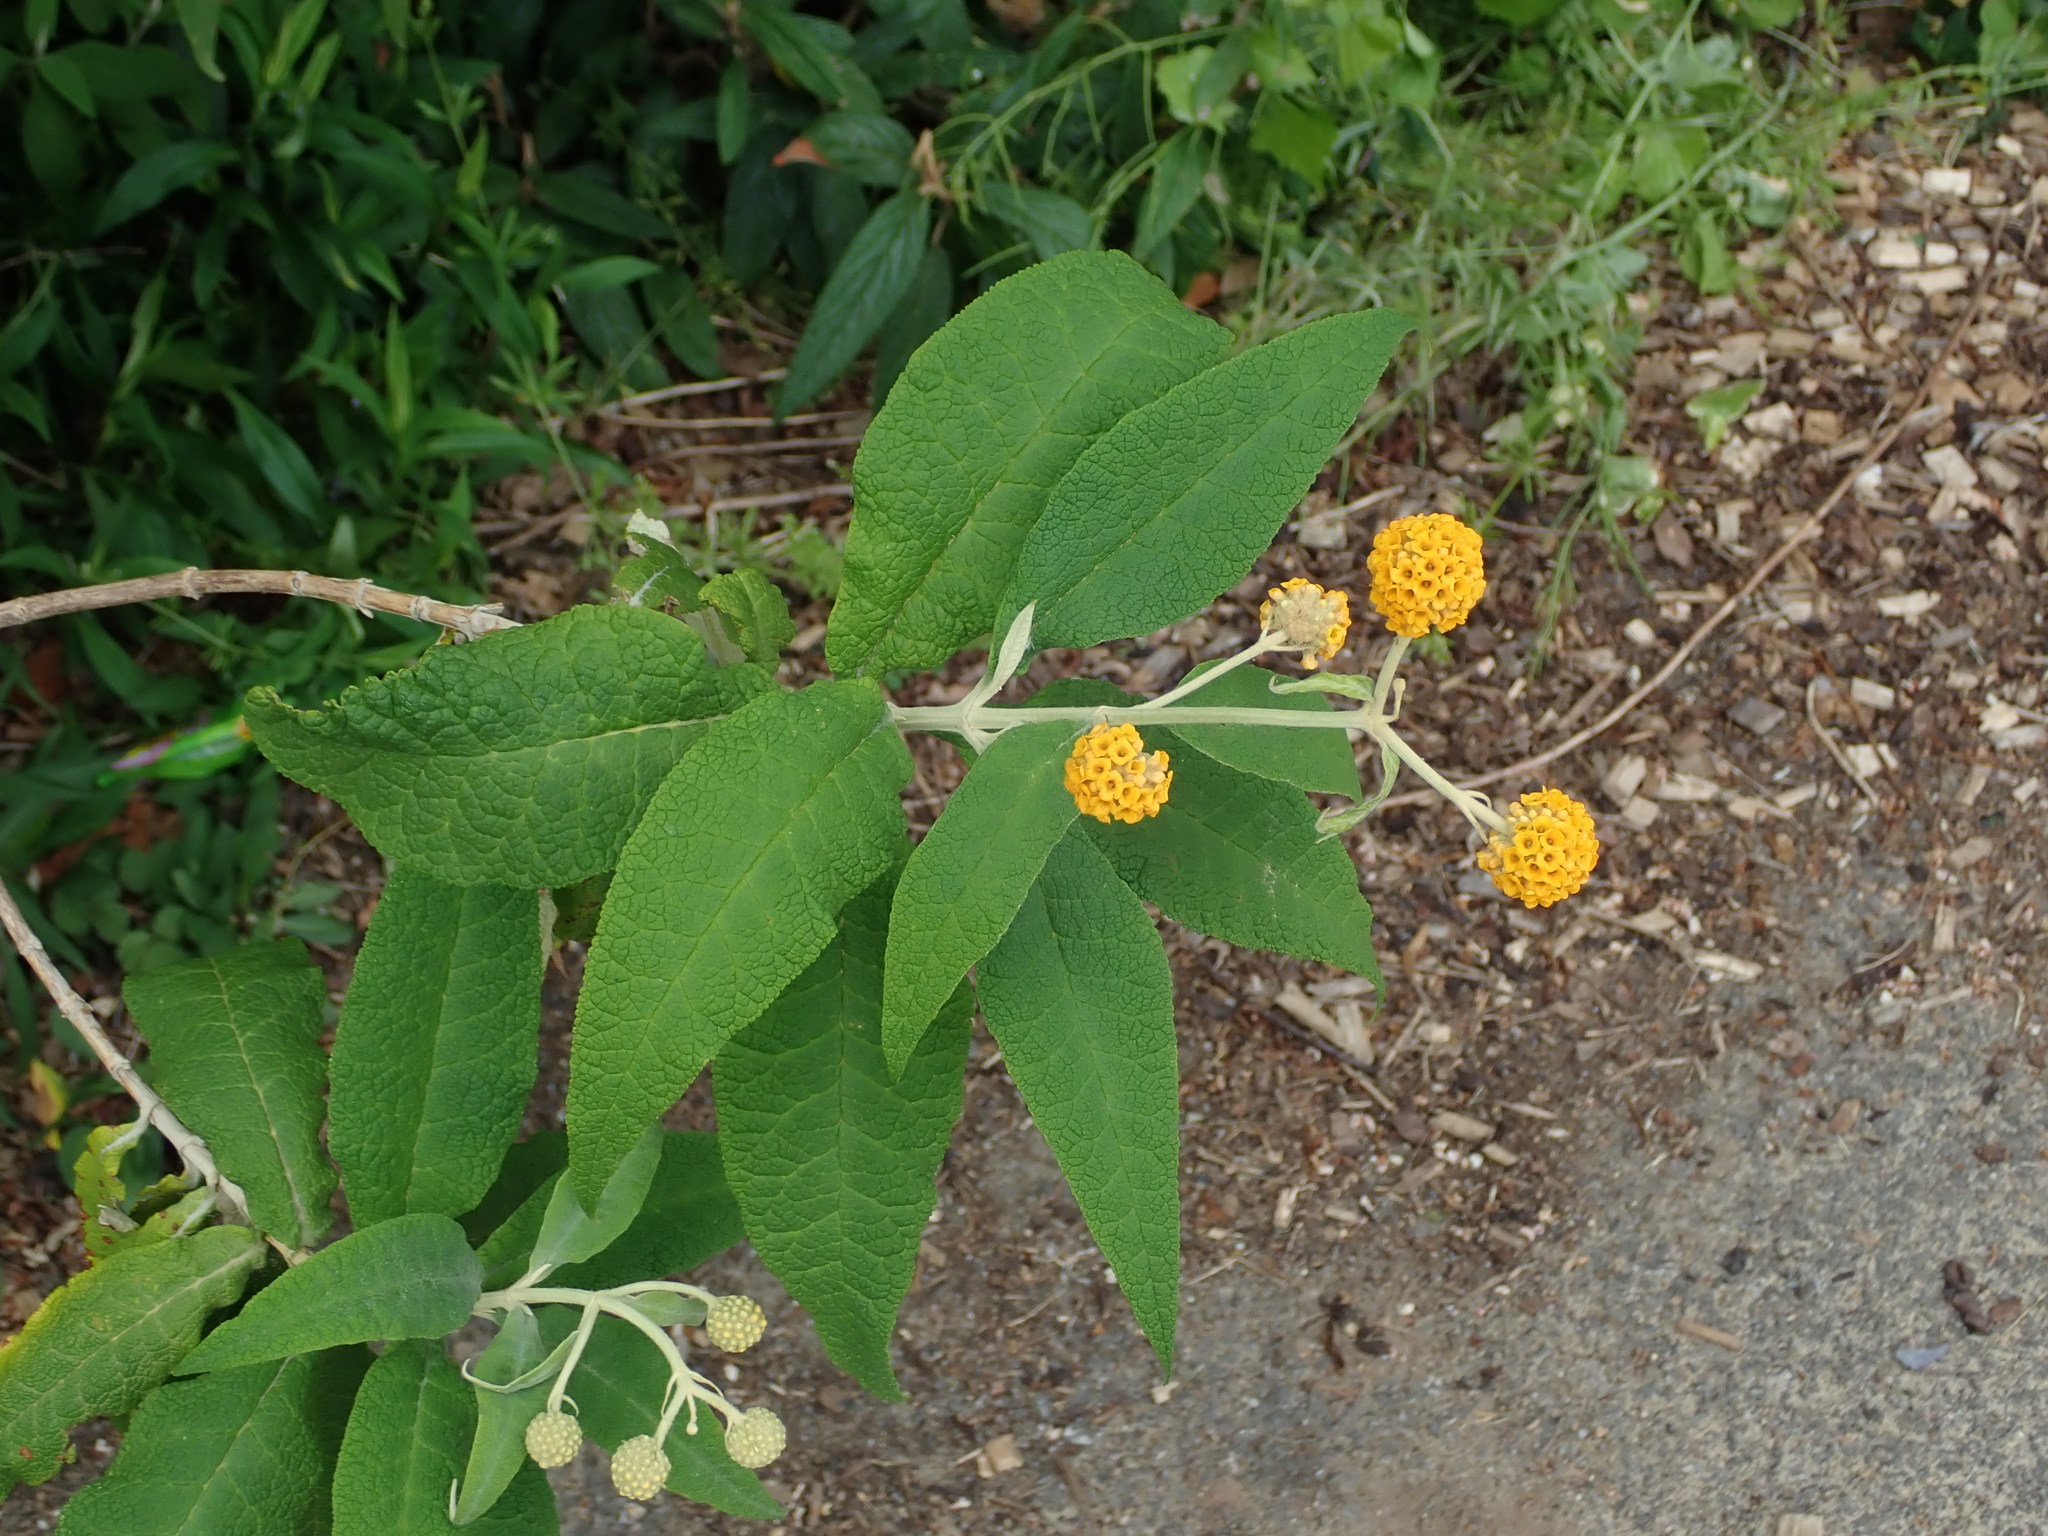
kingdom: Plantae
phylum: Tracheophyta
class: Magnoliopsida
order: Lamiales
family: Scrophulariaceae
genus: Buddleja
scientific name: Buddleja globosa
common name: Orange-ball-tree
